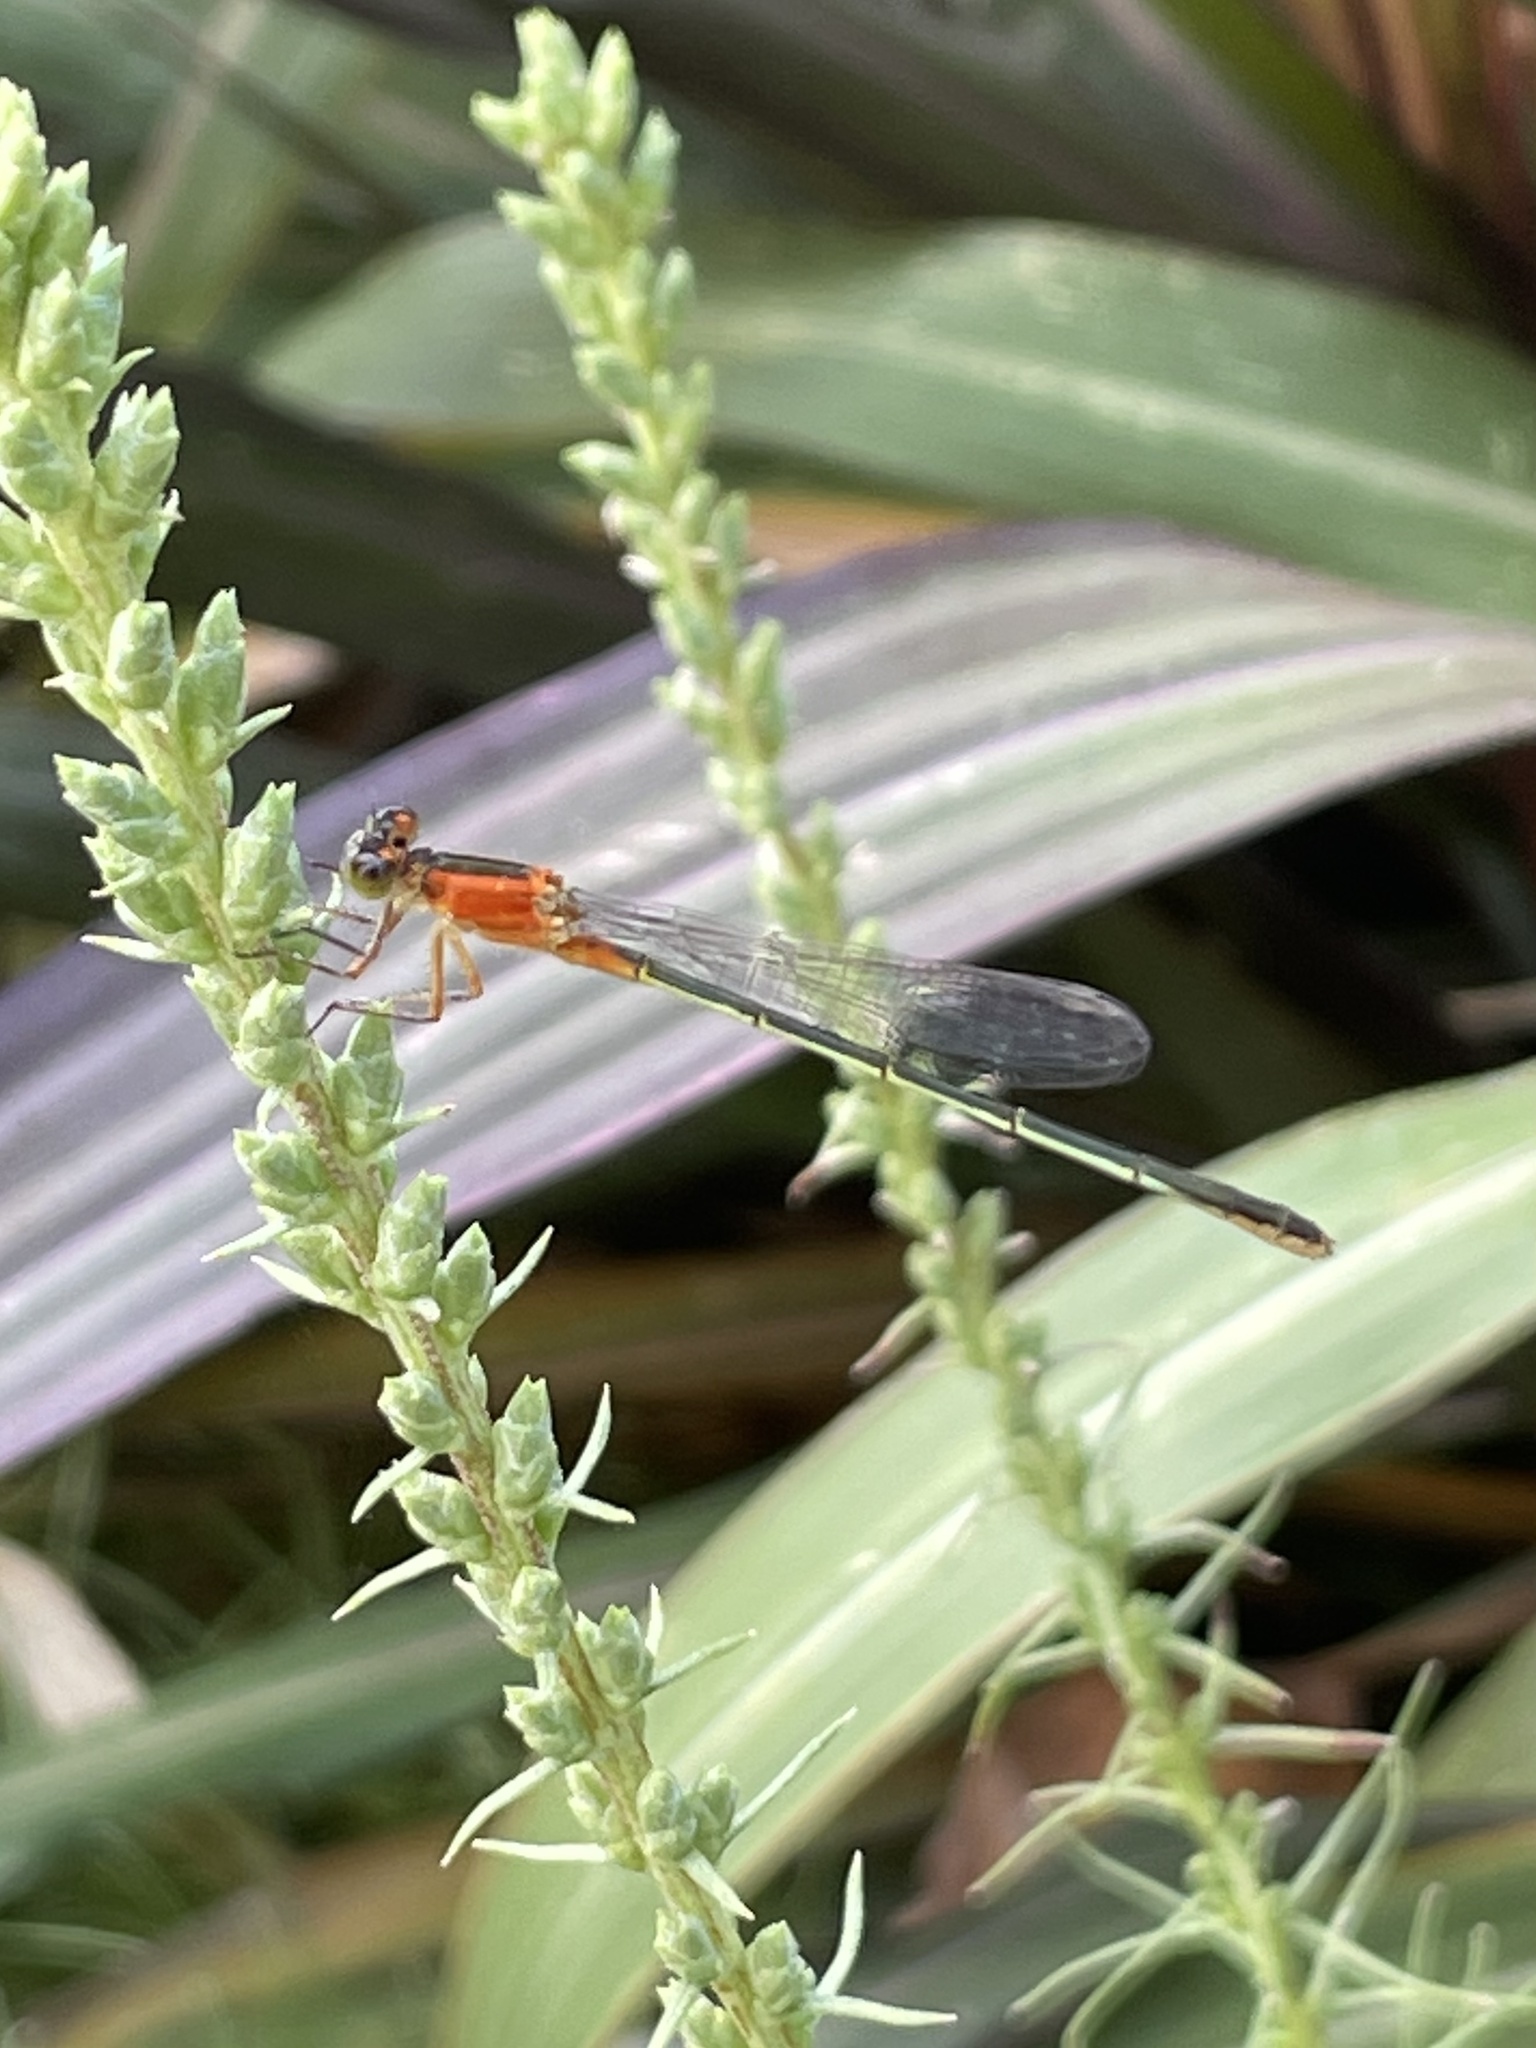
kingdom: Animalia
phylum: Arthropoda
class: Insecta
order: Odonata
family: Coenagrionidae
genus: Ischnura
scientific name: Ischnura ramburii
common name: Rambur's forktail
